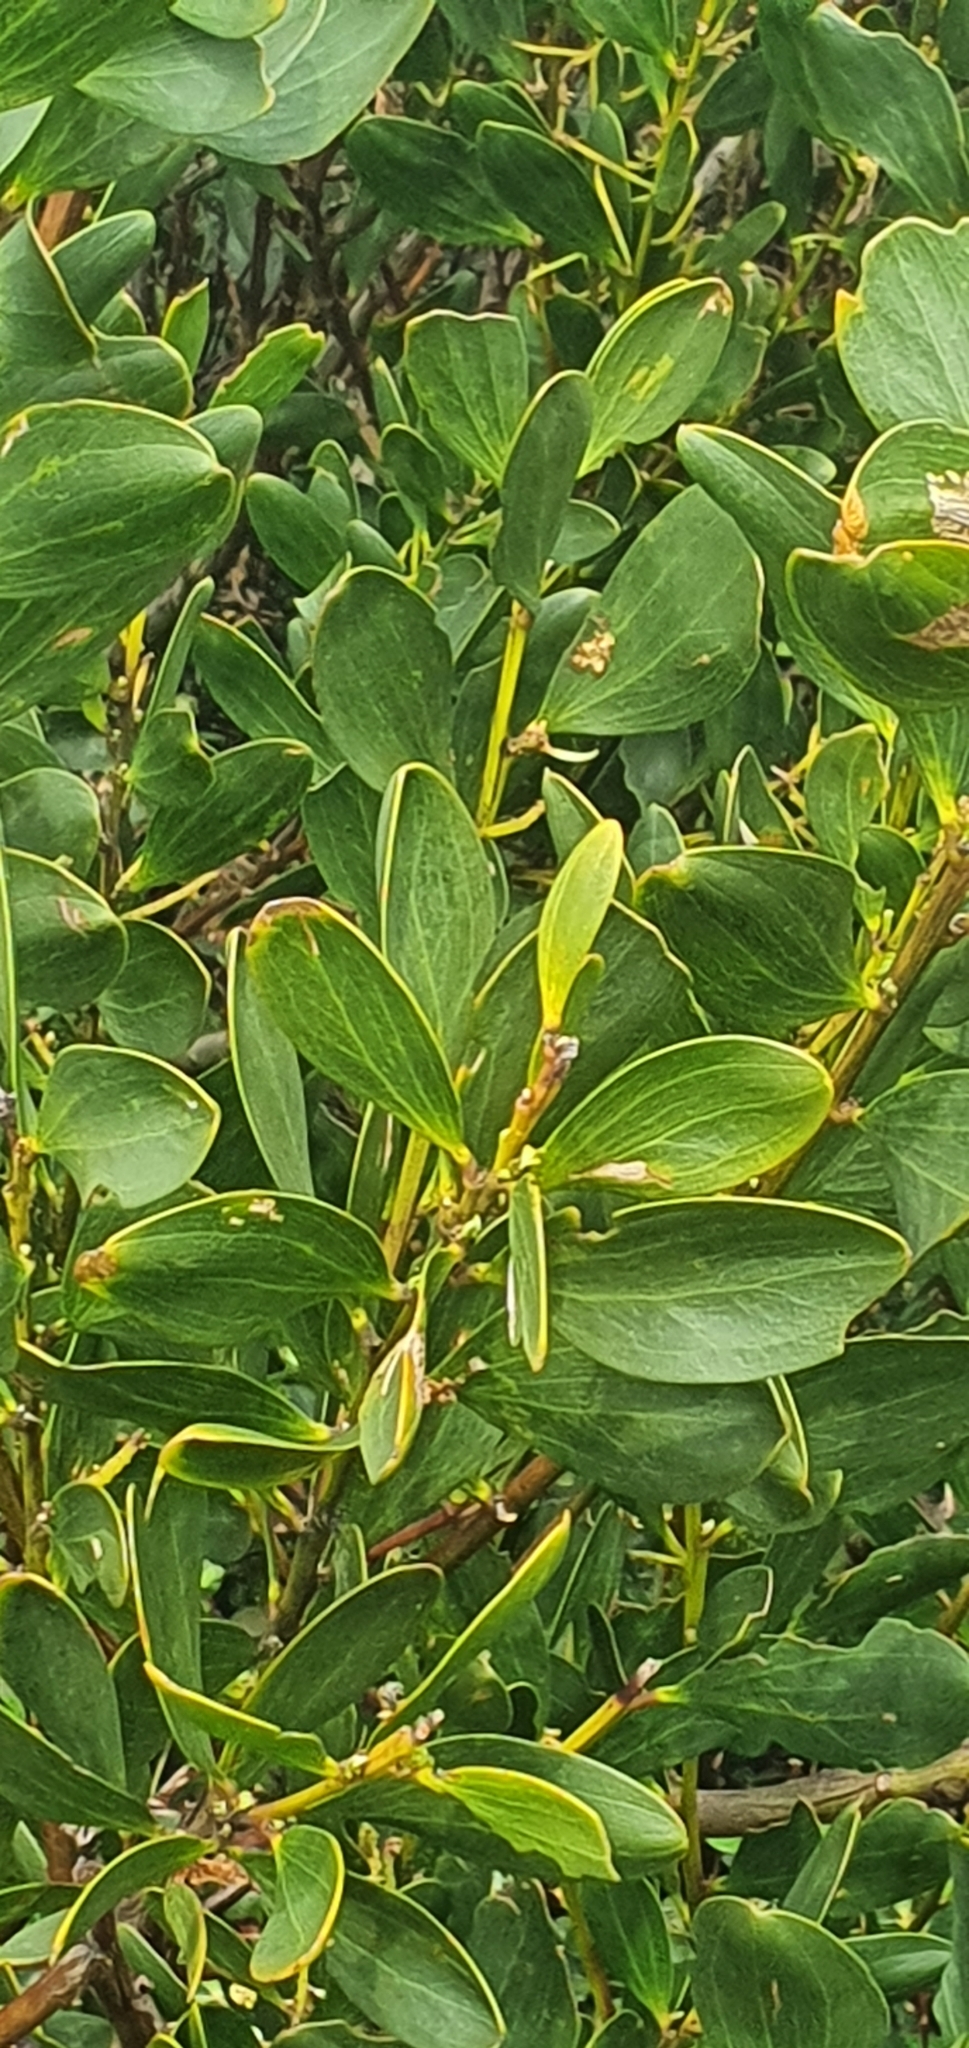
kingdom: Plantae
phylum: Tracheophyta
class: Magnoliopsida
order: Fabales
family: Fabaceae
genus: Acacia
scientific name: Acacia longifolia
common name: Sydney golden wattle
